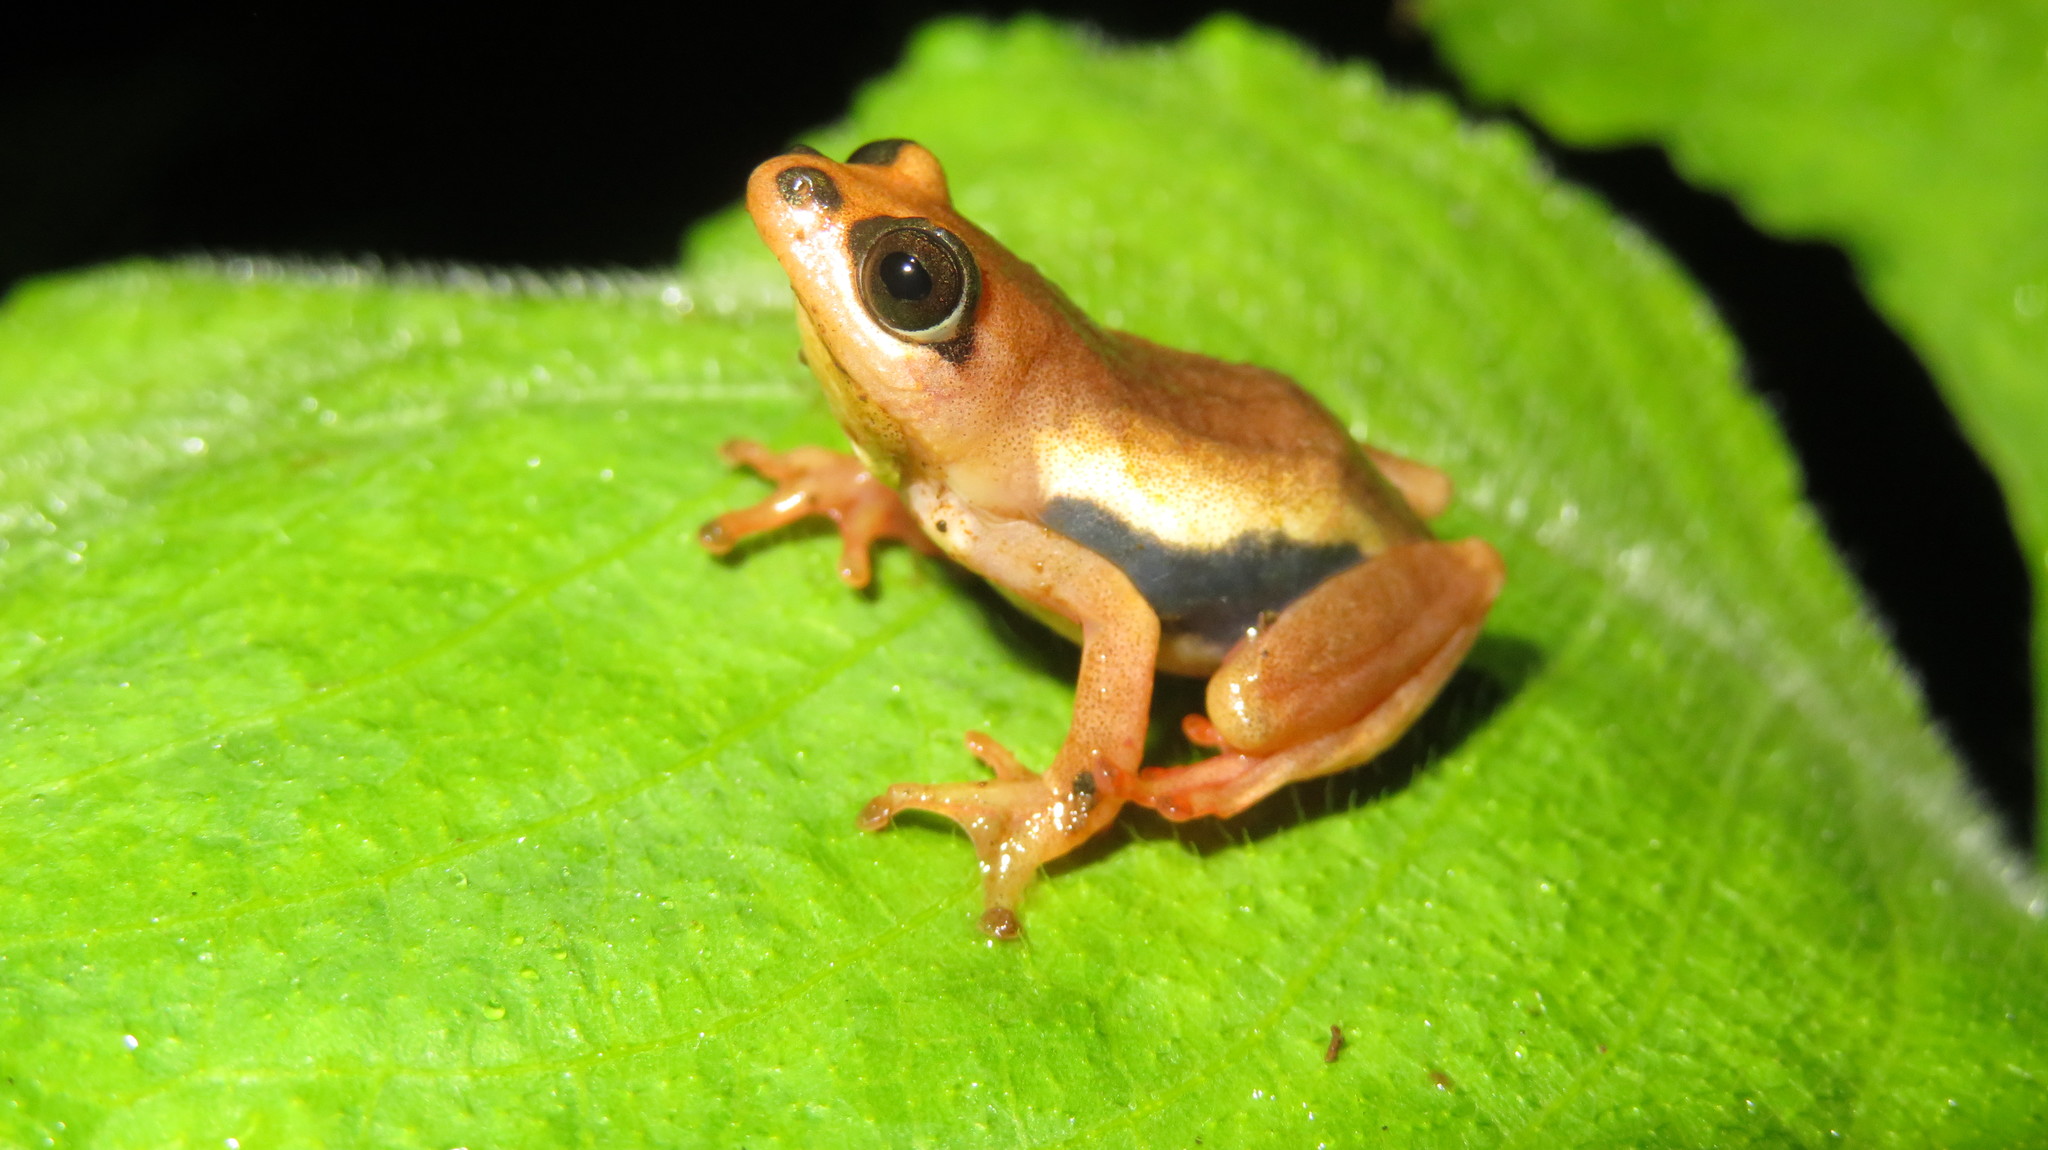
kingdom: Animalia
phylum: Chordata
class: Amphibia
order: Anura
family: Hyperoliidae
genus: Hyperolius
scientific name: Hyperolius mariae
